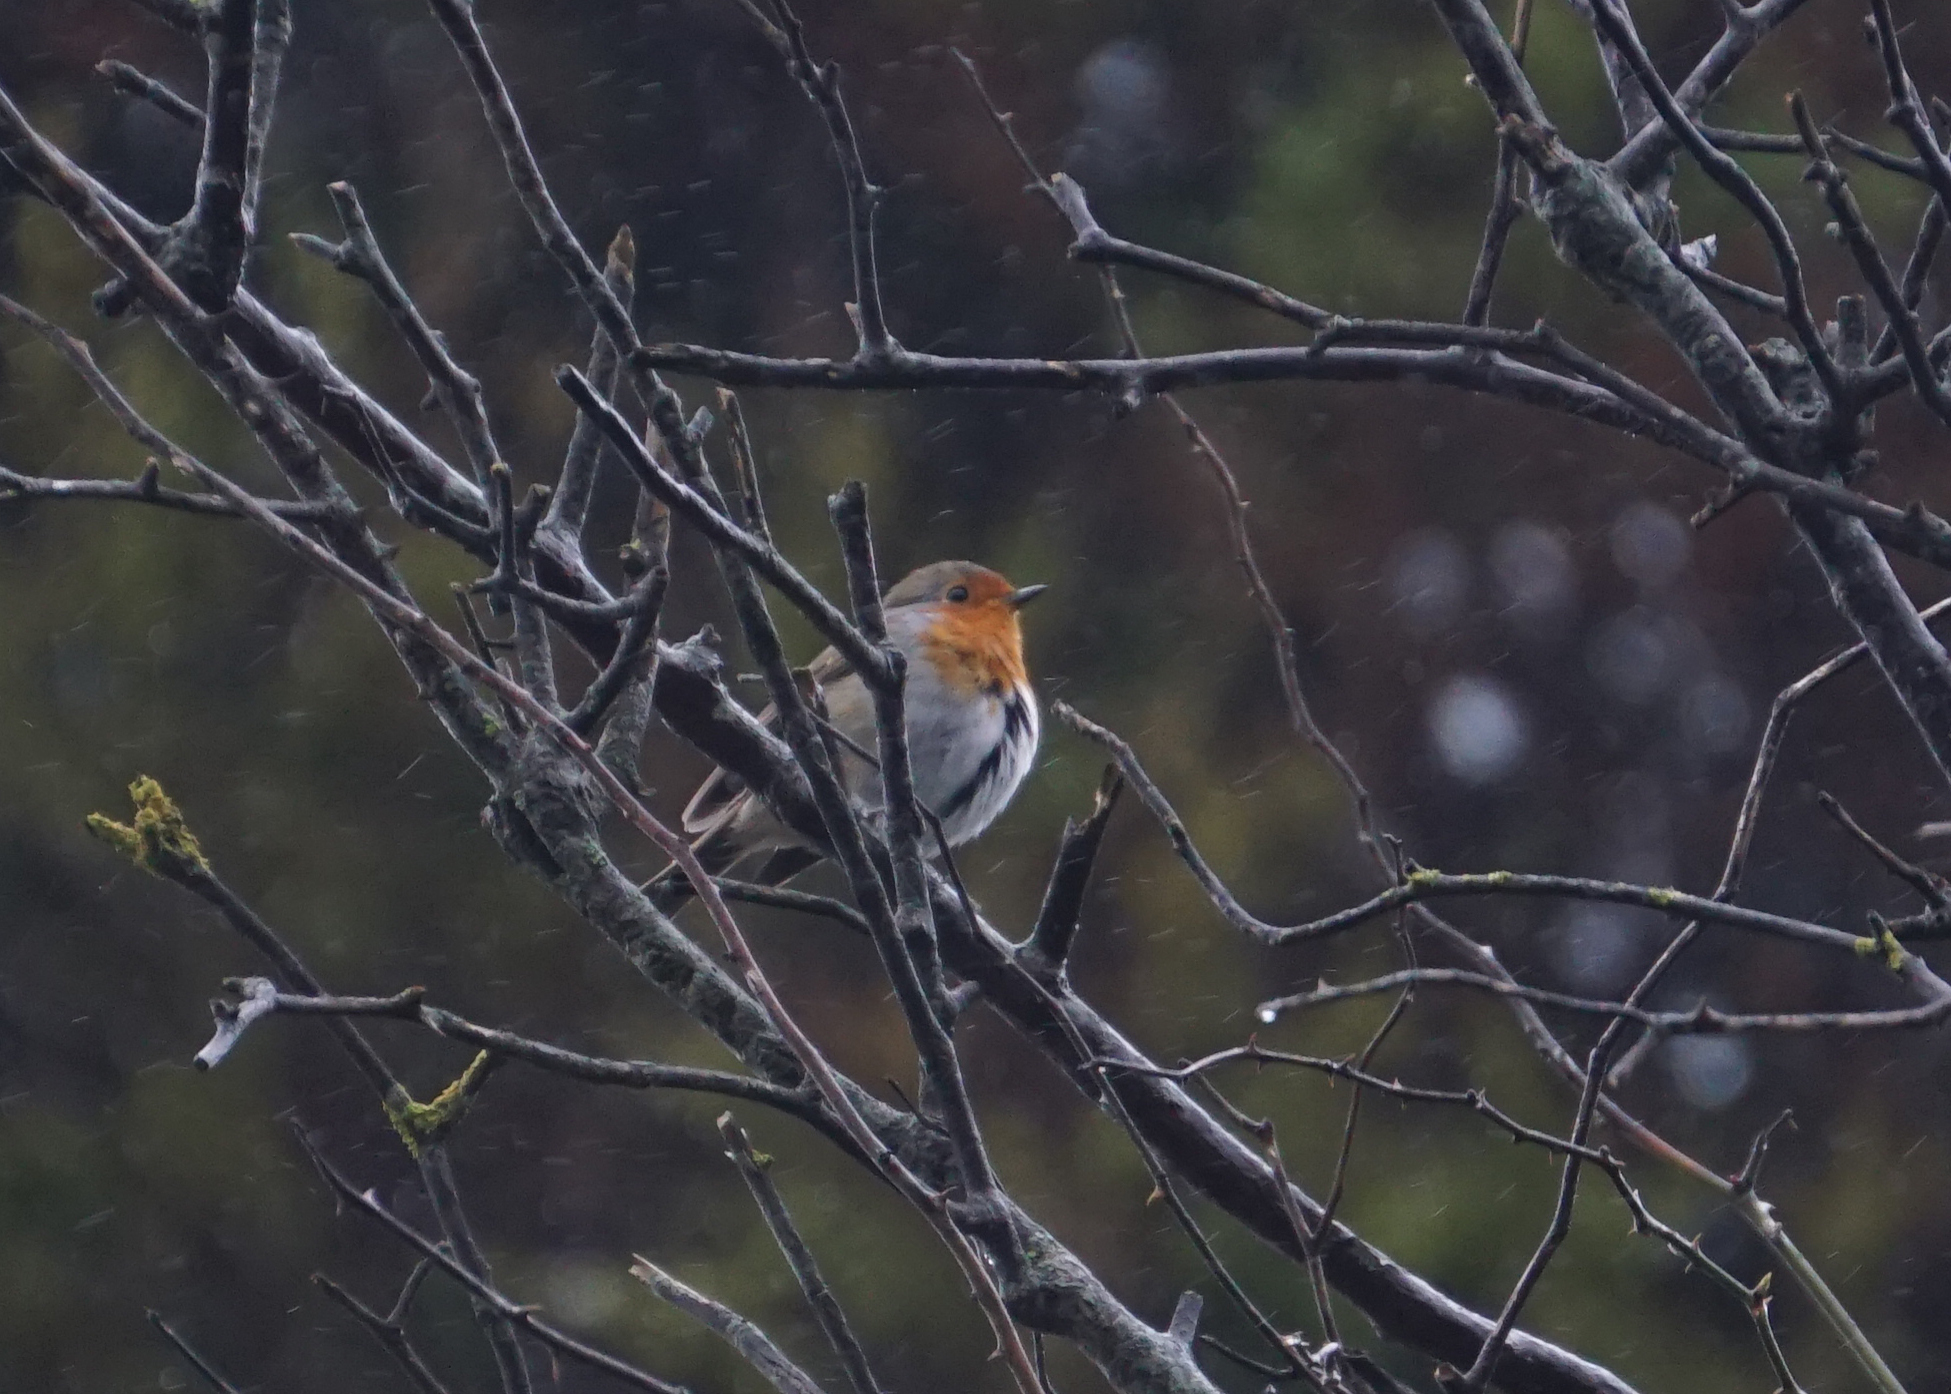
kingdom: Animalia
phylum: Chordata
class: Aves
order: Passeriformes
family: Muscicapidae
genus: Erithacus
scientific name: Erithacus rubecula
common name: European robin
